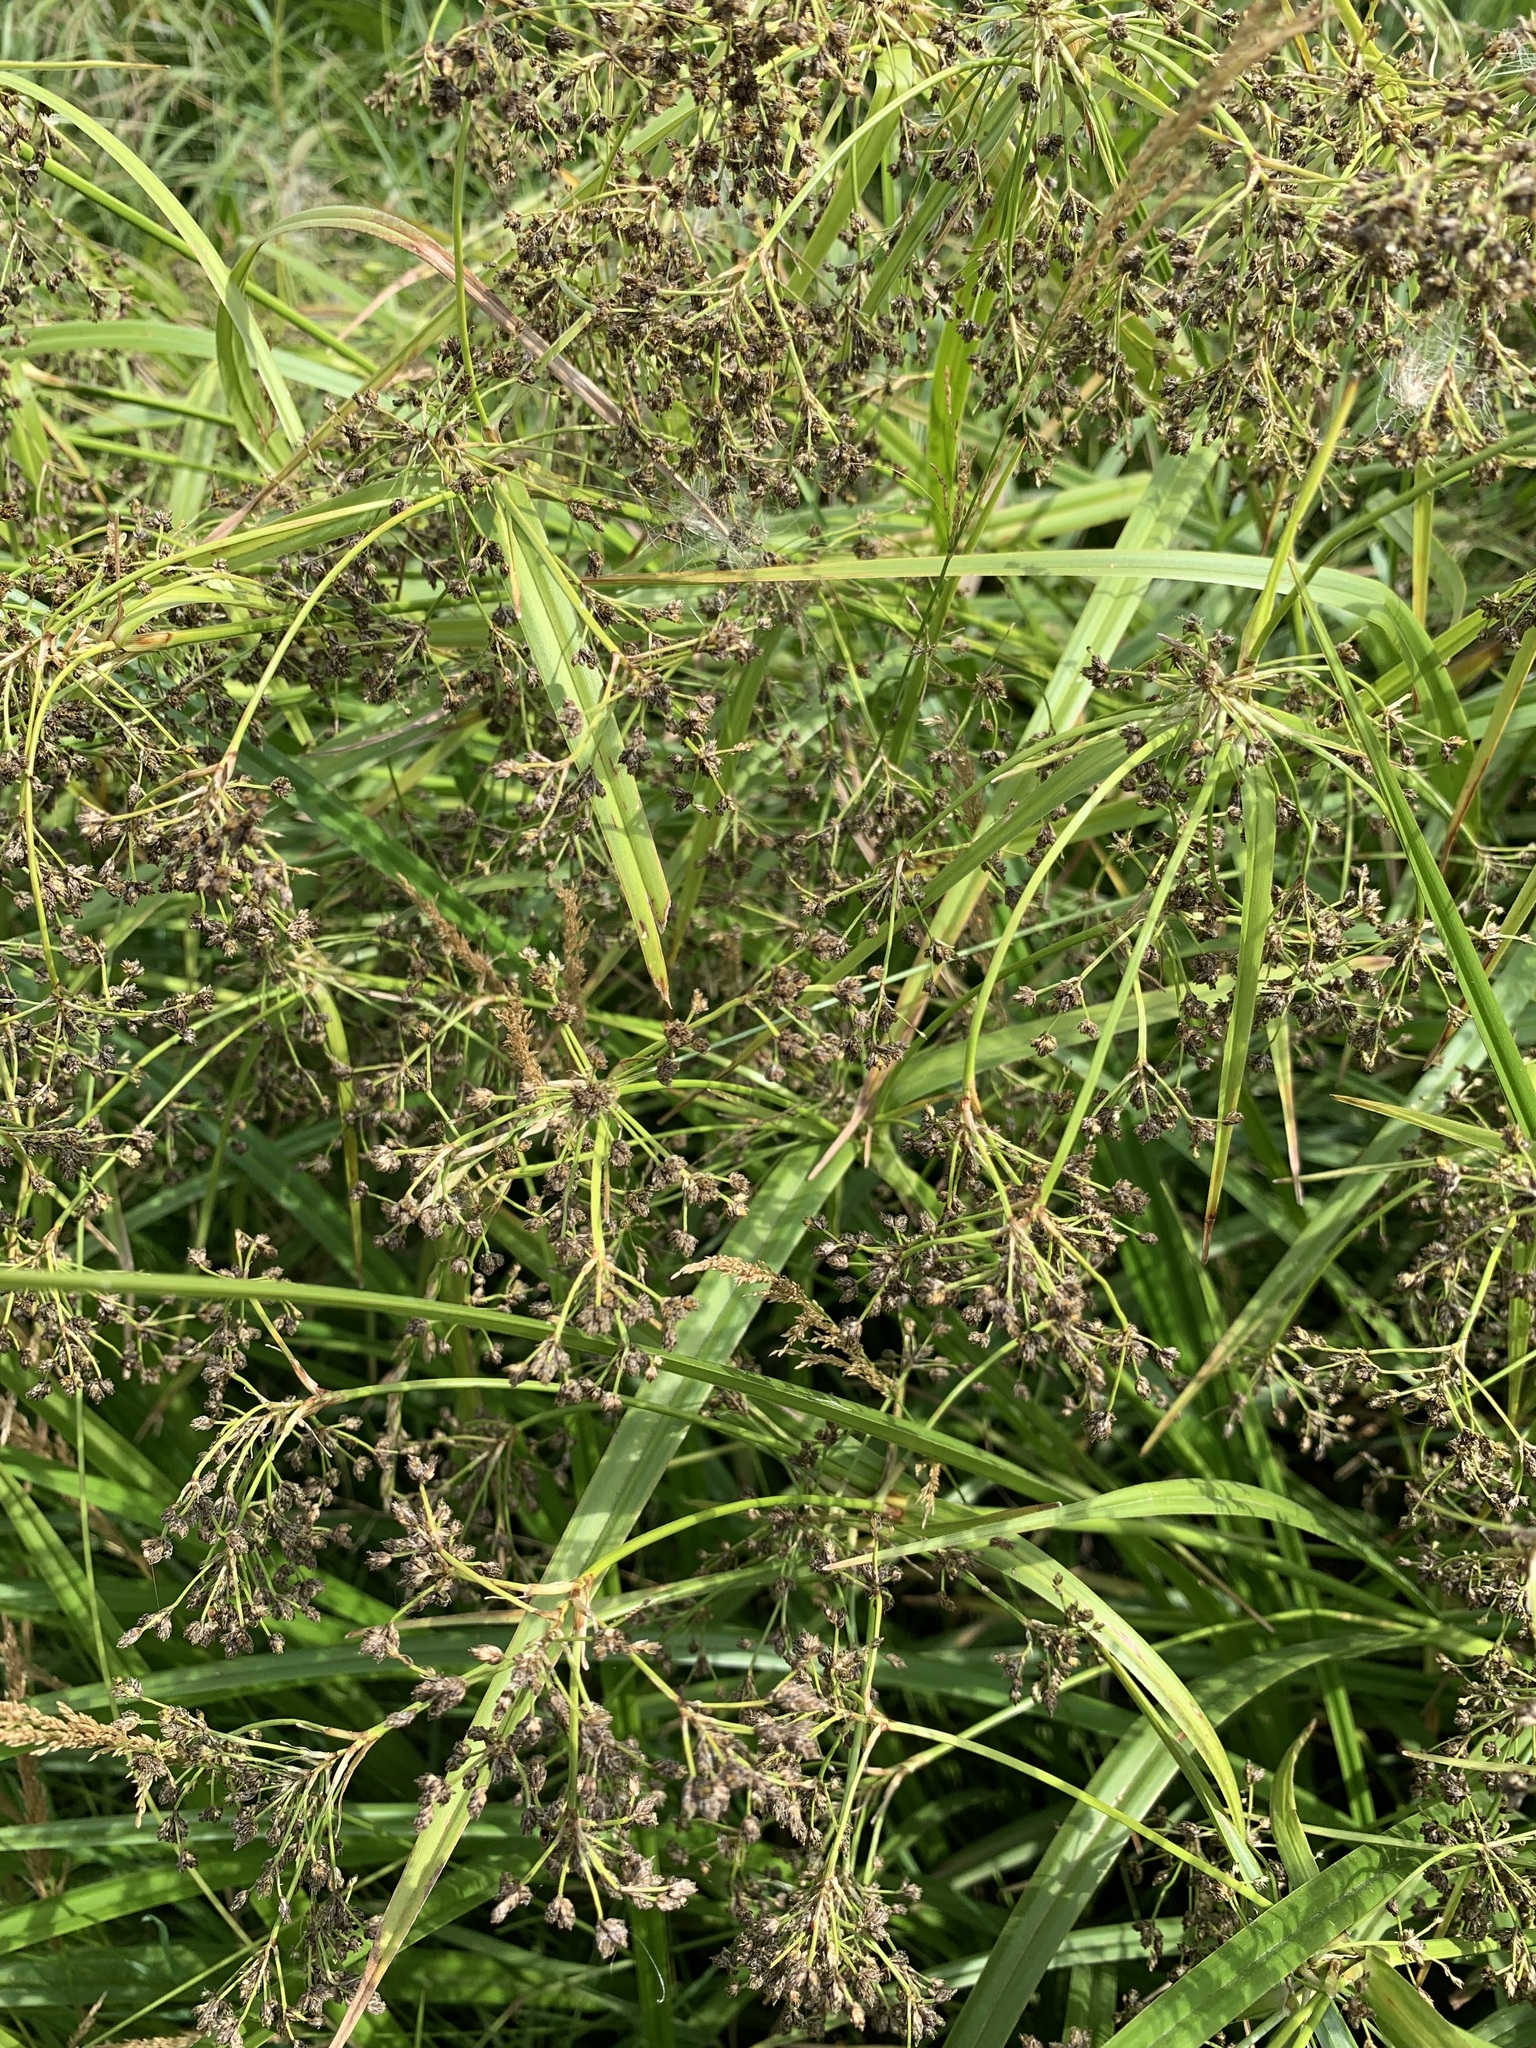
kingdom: Plantae
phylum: Tracheophyta
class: Liliopsida
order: Poales
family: Cyperaceae
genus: Scirpus
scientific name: Scirpus sylvaticus
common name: Wood club-rush
